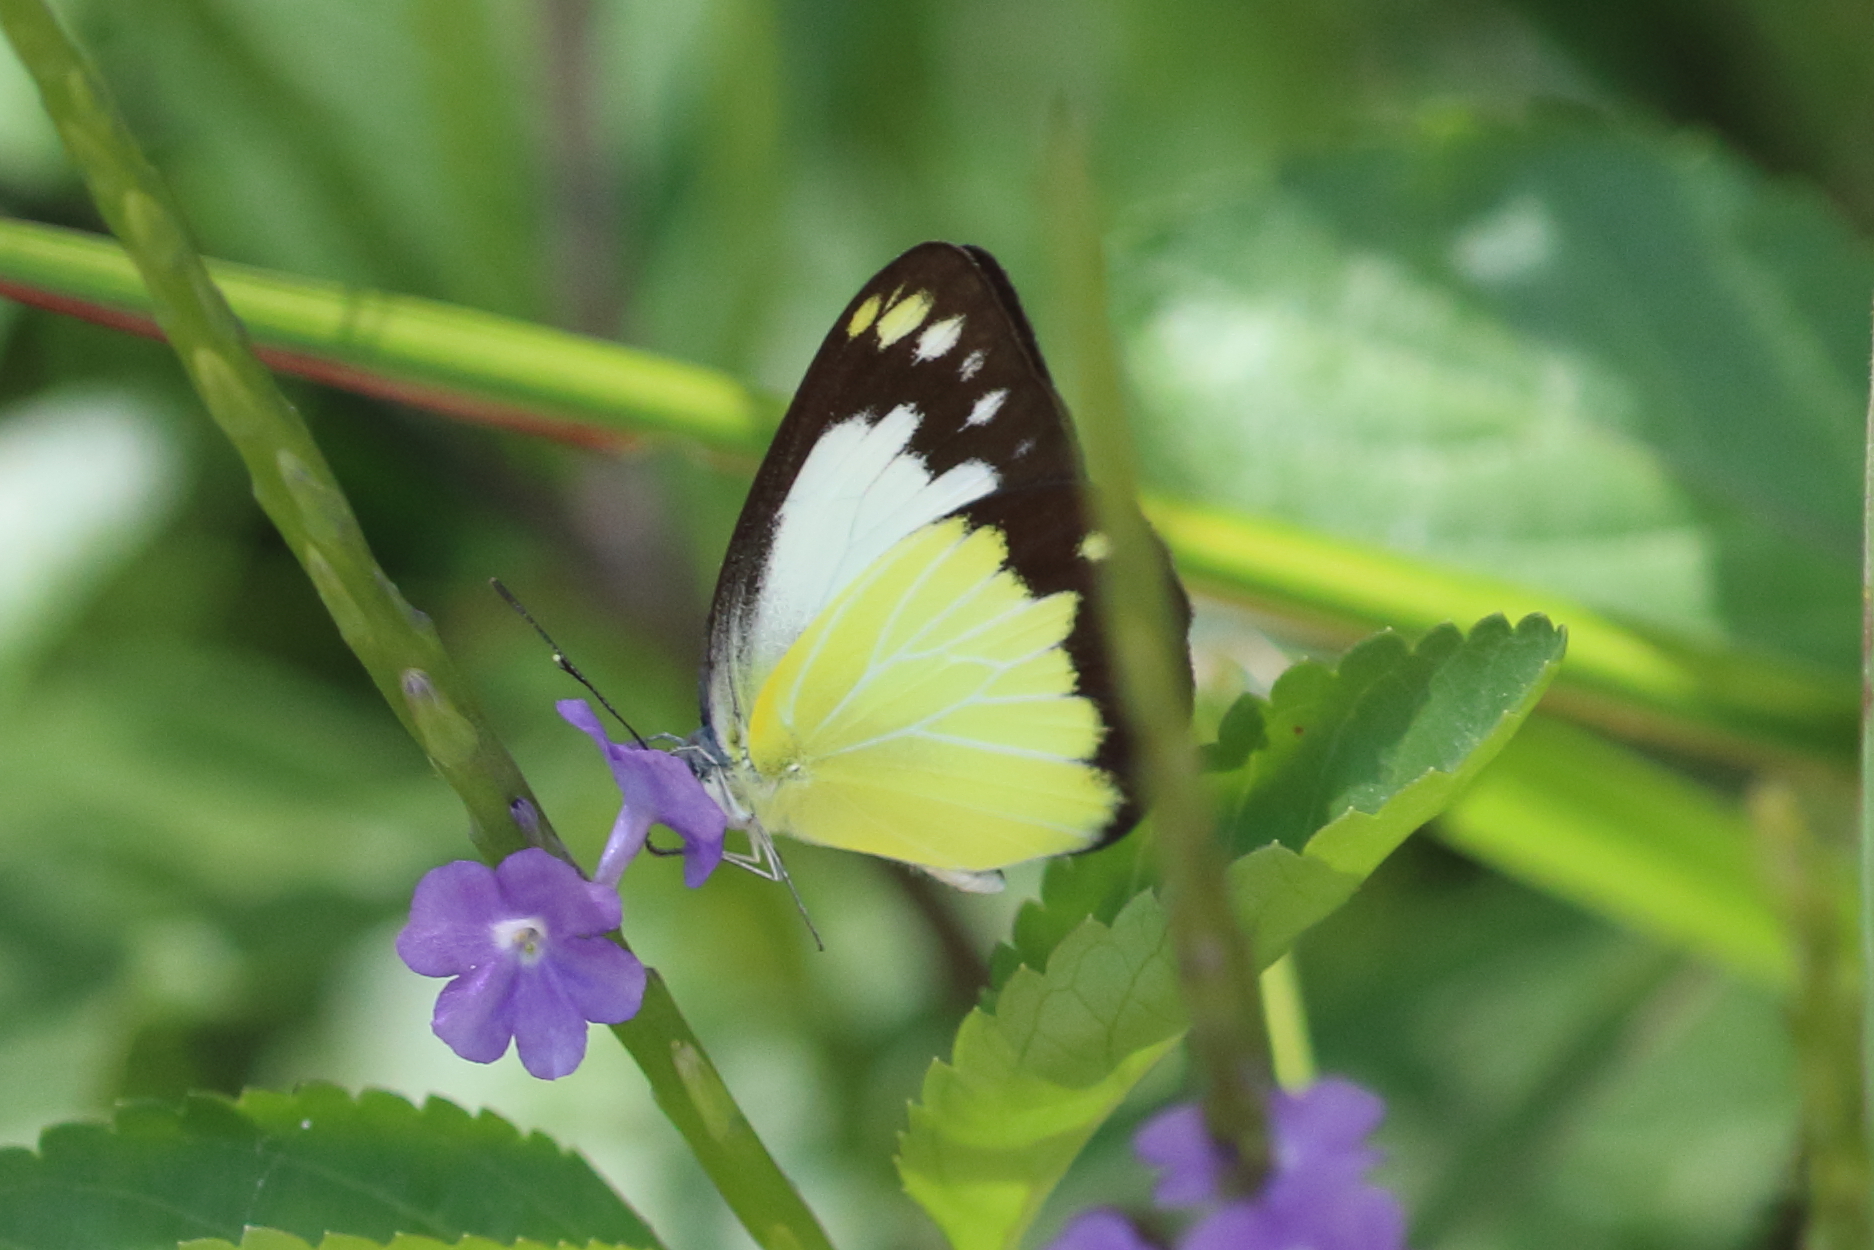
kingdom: Animalia
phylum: Arthropoda
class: Insecta
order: Lepidoptera
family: Pieridae
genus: Cepora
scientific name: Cepora perimale
